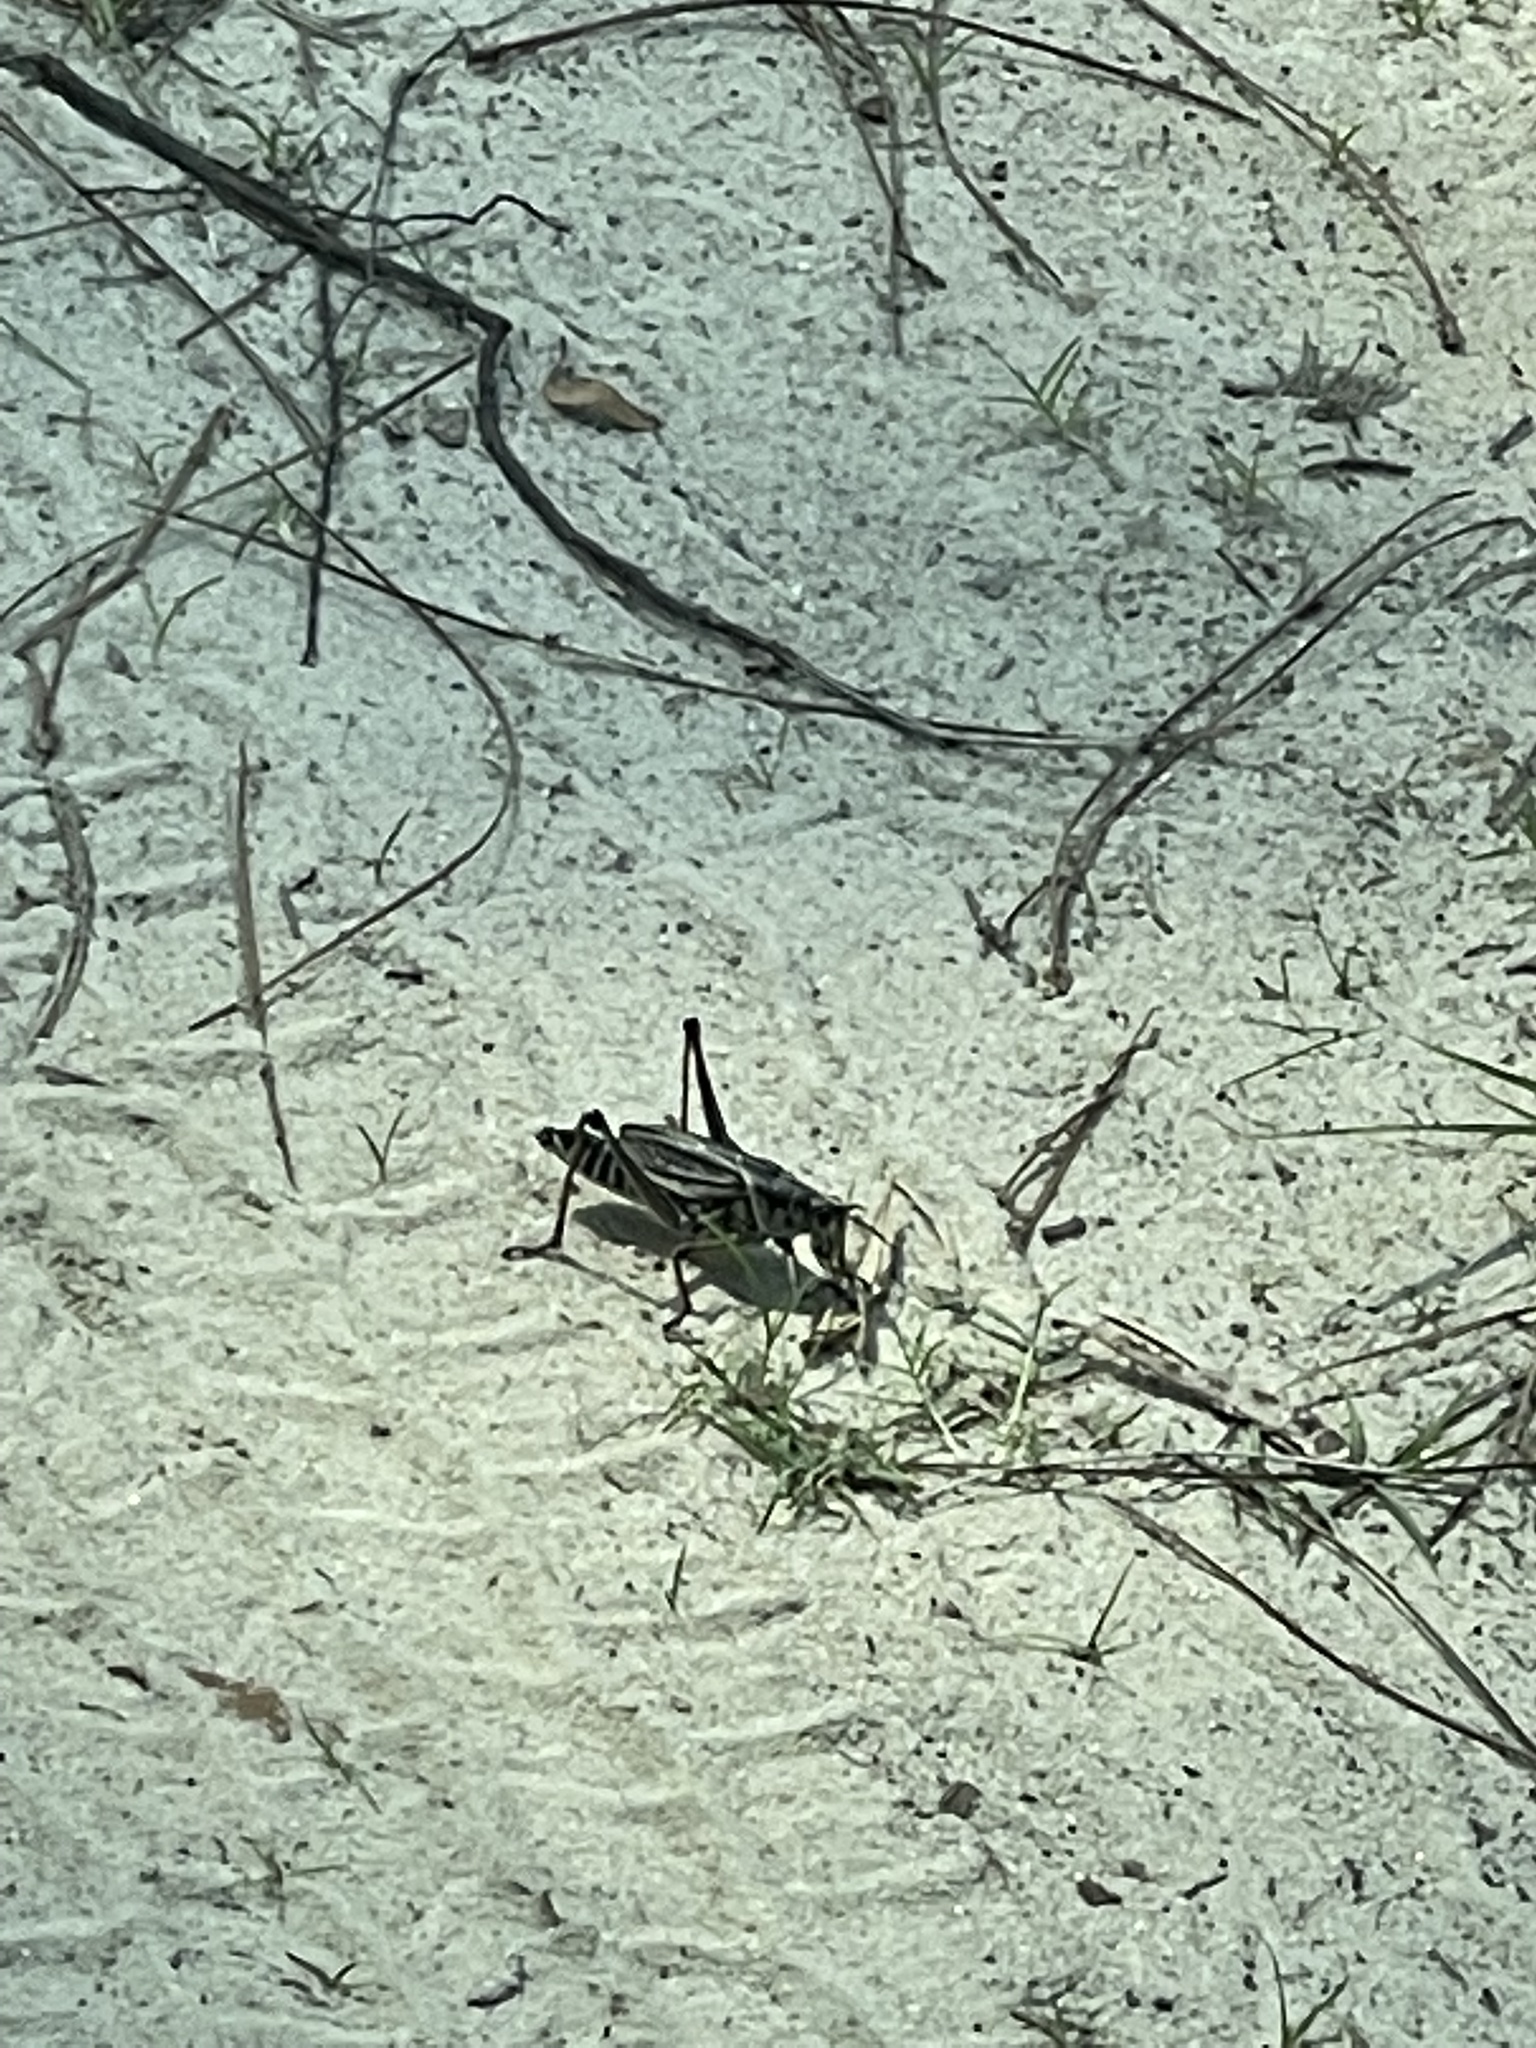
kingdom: Animalia
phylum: Arthropoda
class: Insecta
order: Orthoptera
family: Romaleidae
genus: Romalea
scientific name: Romalea microptera
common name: Eastern lubber grasshopper
